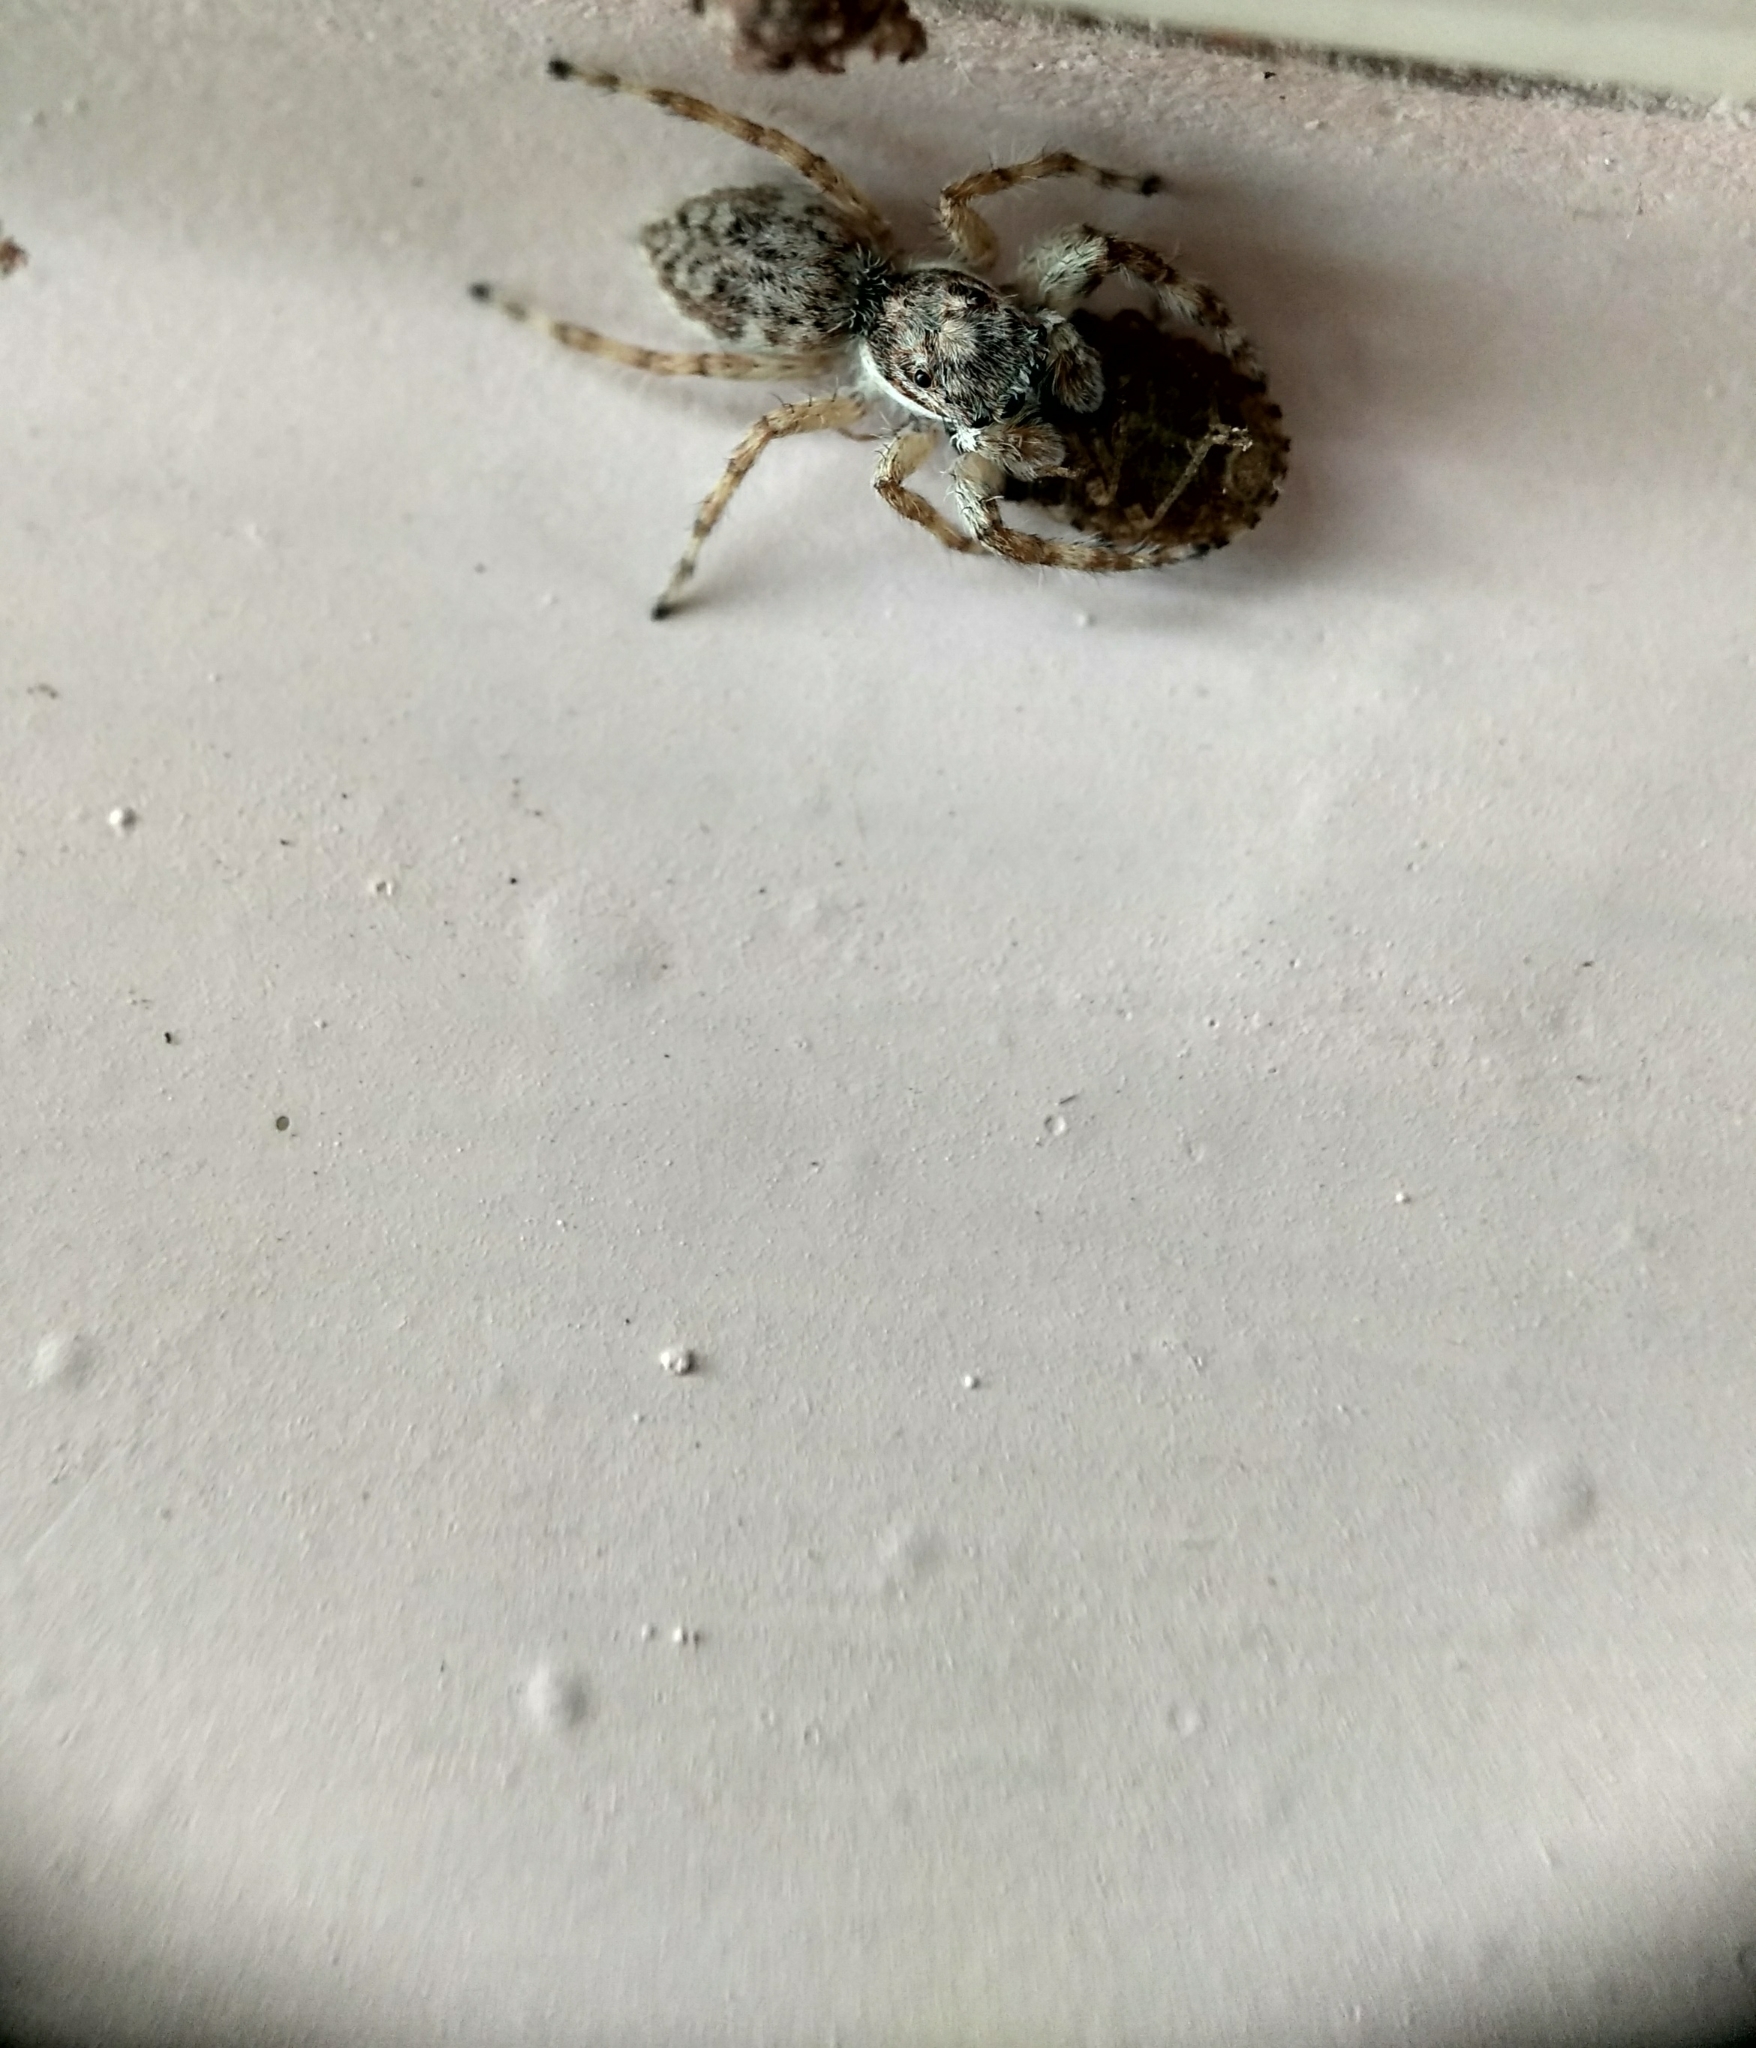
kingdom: Animalia
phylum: Arthropoda
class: Arachnida
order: Araneae
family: Salticidae
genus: Menemerus
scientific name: Menemerus bivittatus
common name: Gray wall jumper
